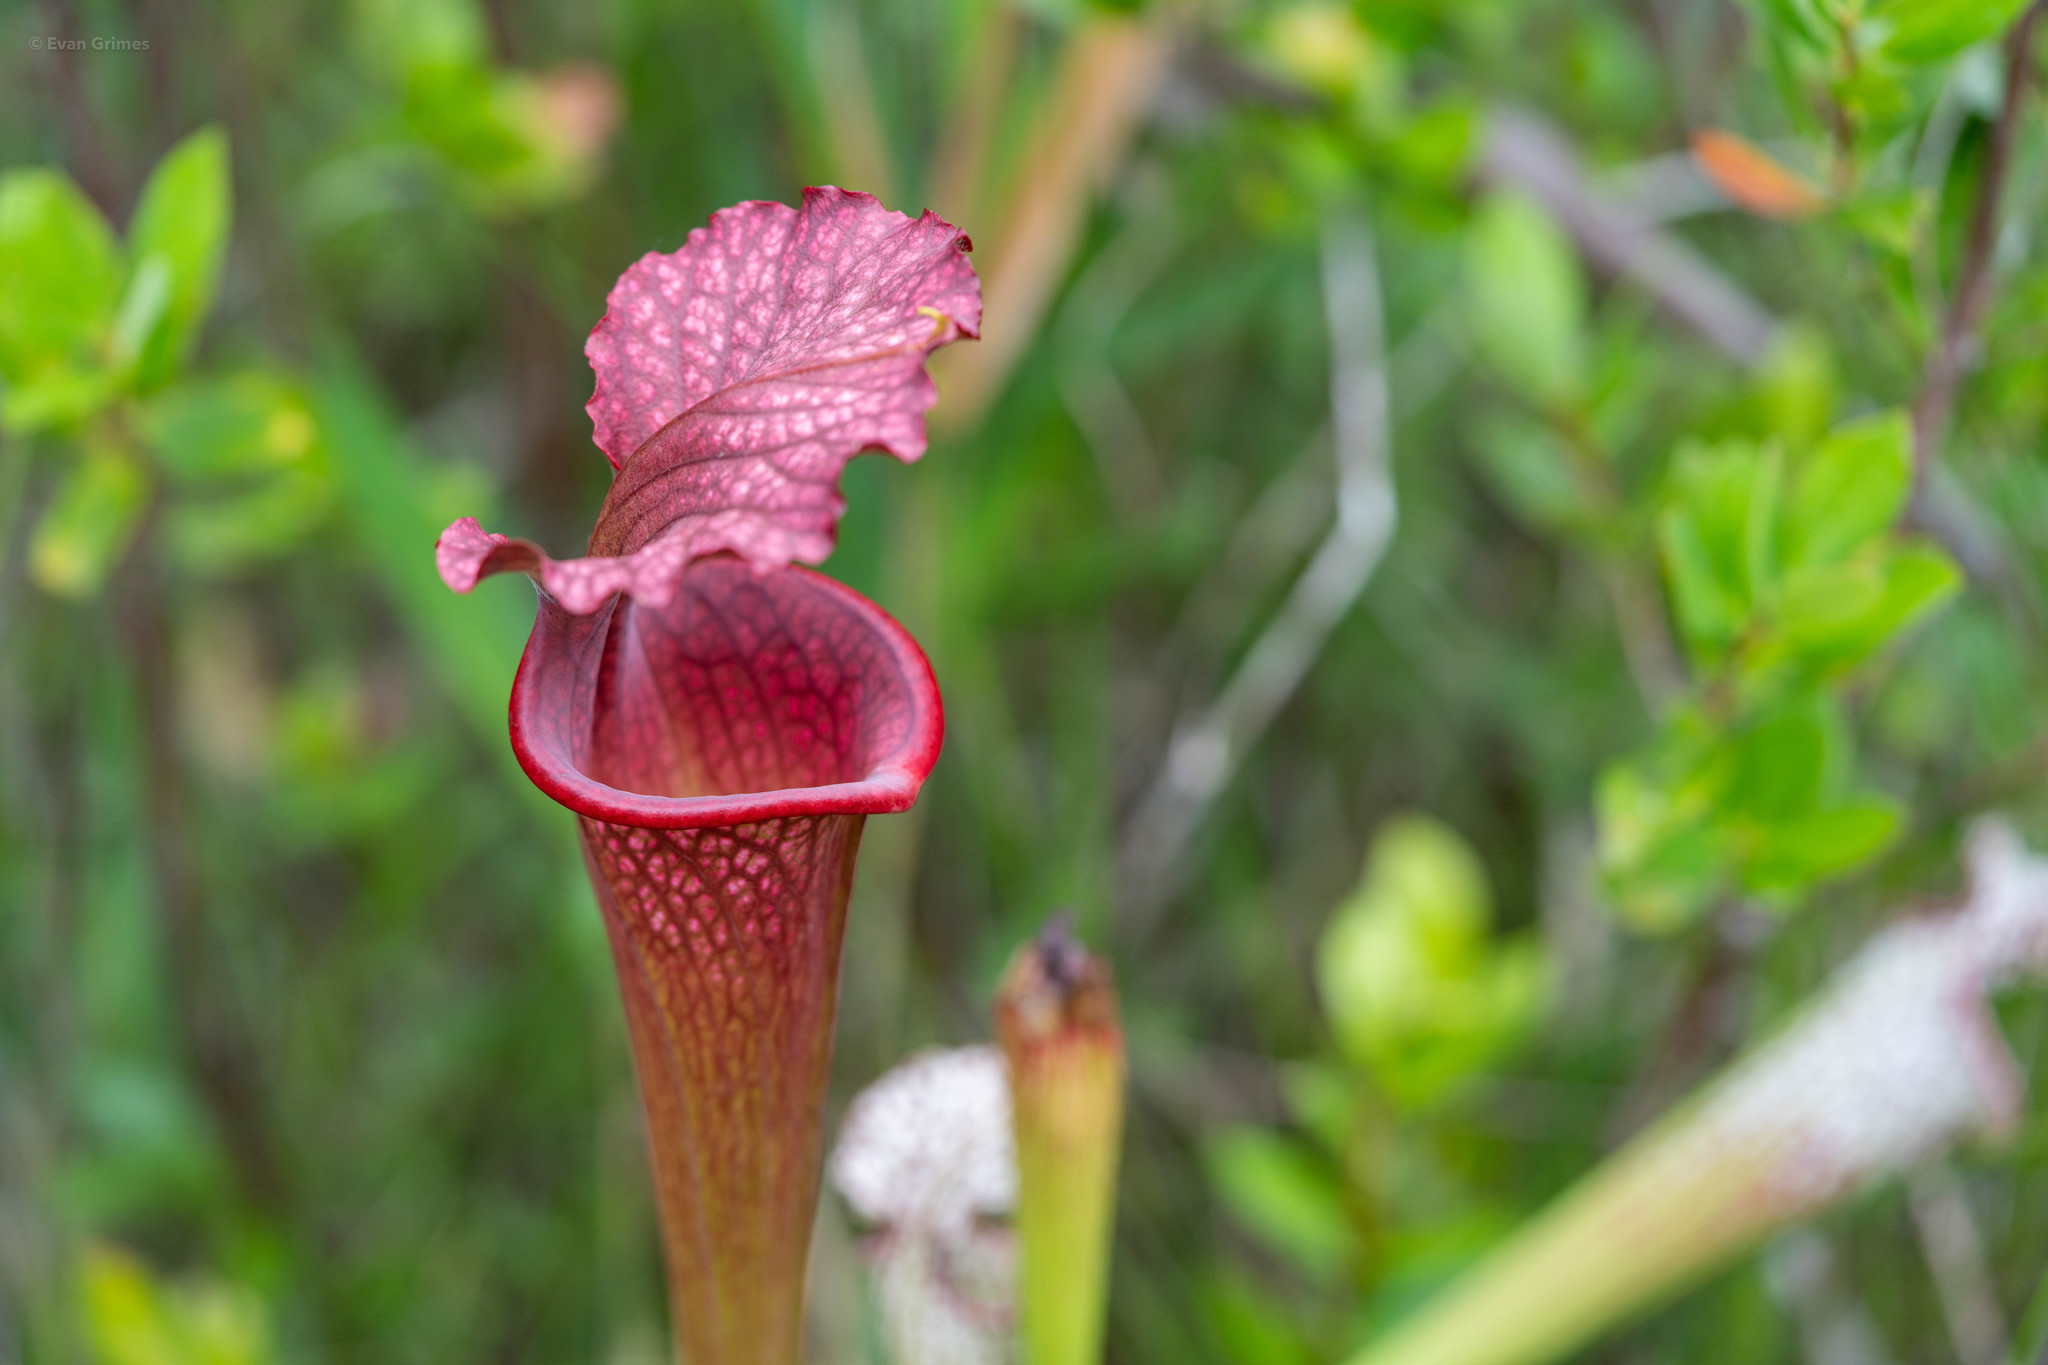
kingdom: Plantae
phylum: Tracheophyta
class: Magnoliopsida
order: Ericales
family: Sarraceniaceae
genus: Sarracenia
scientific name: Sarracenia moorei
